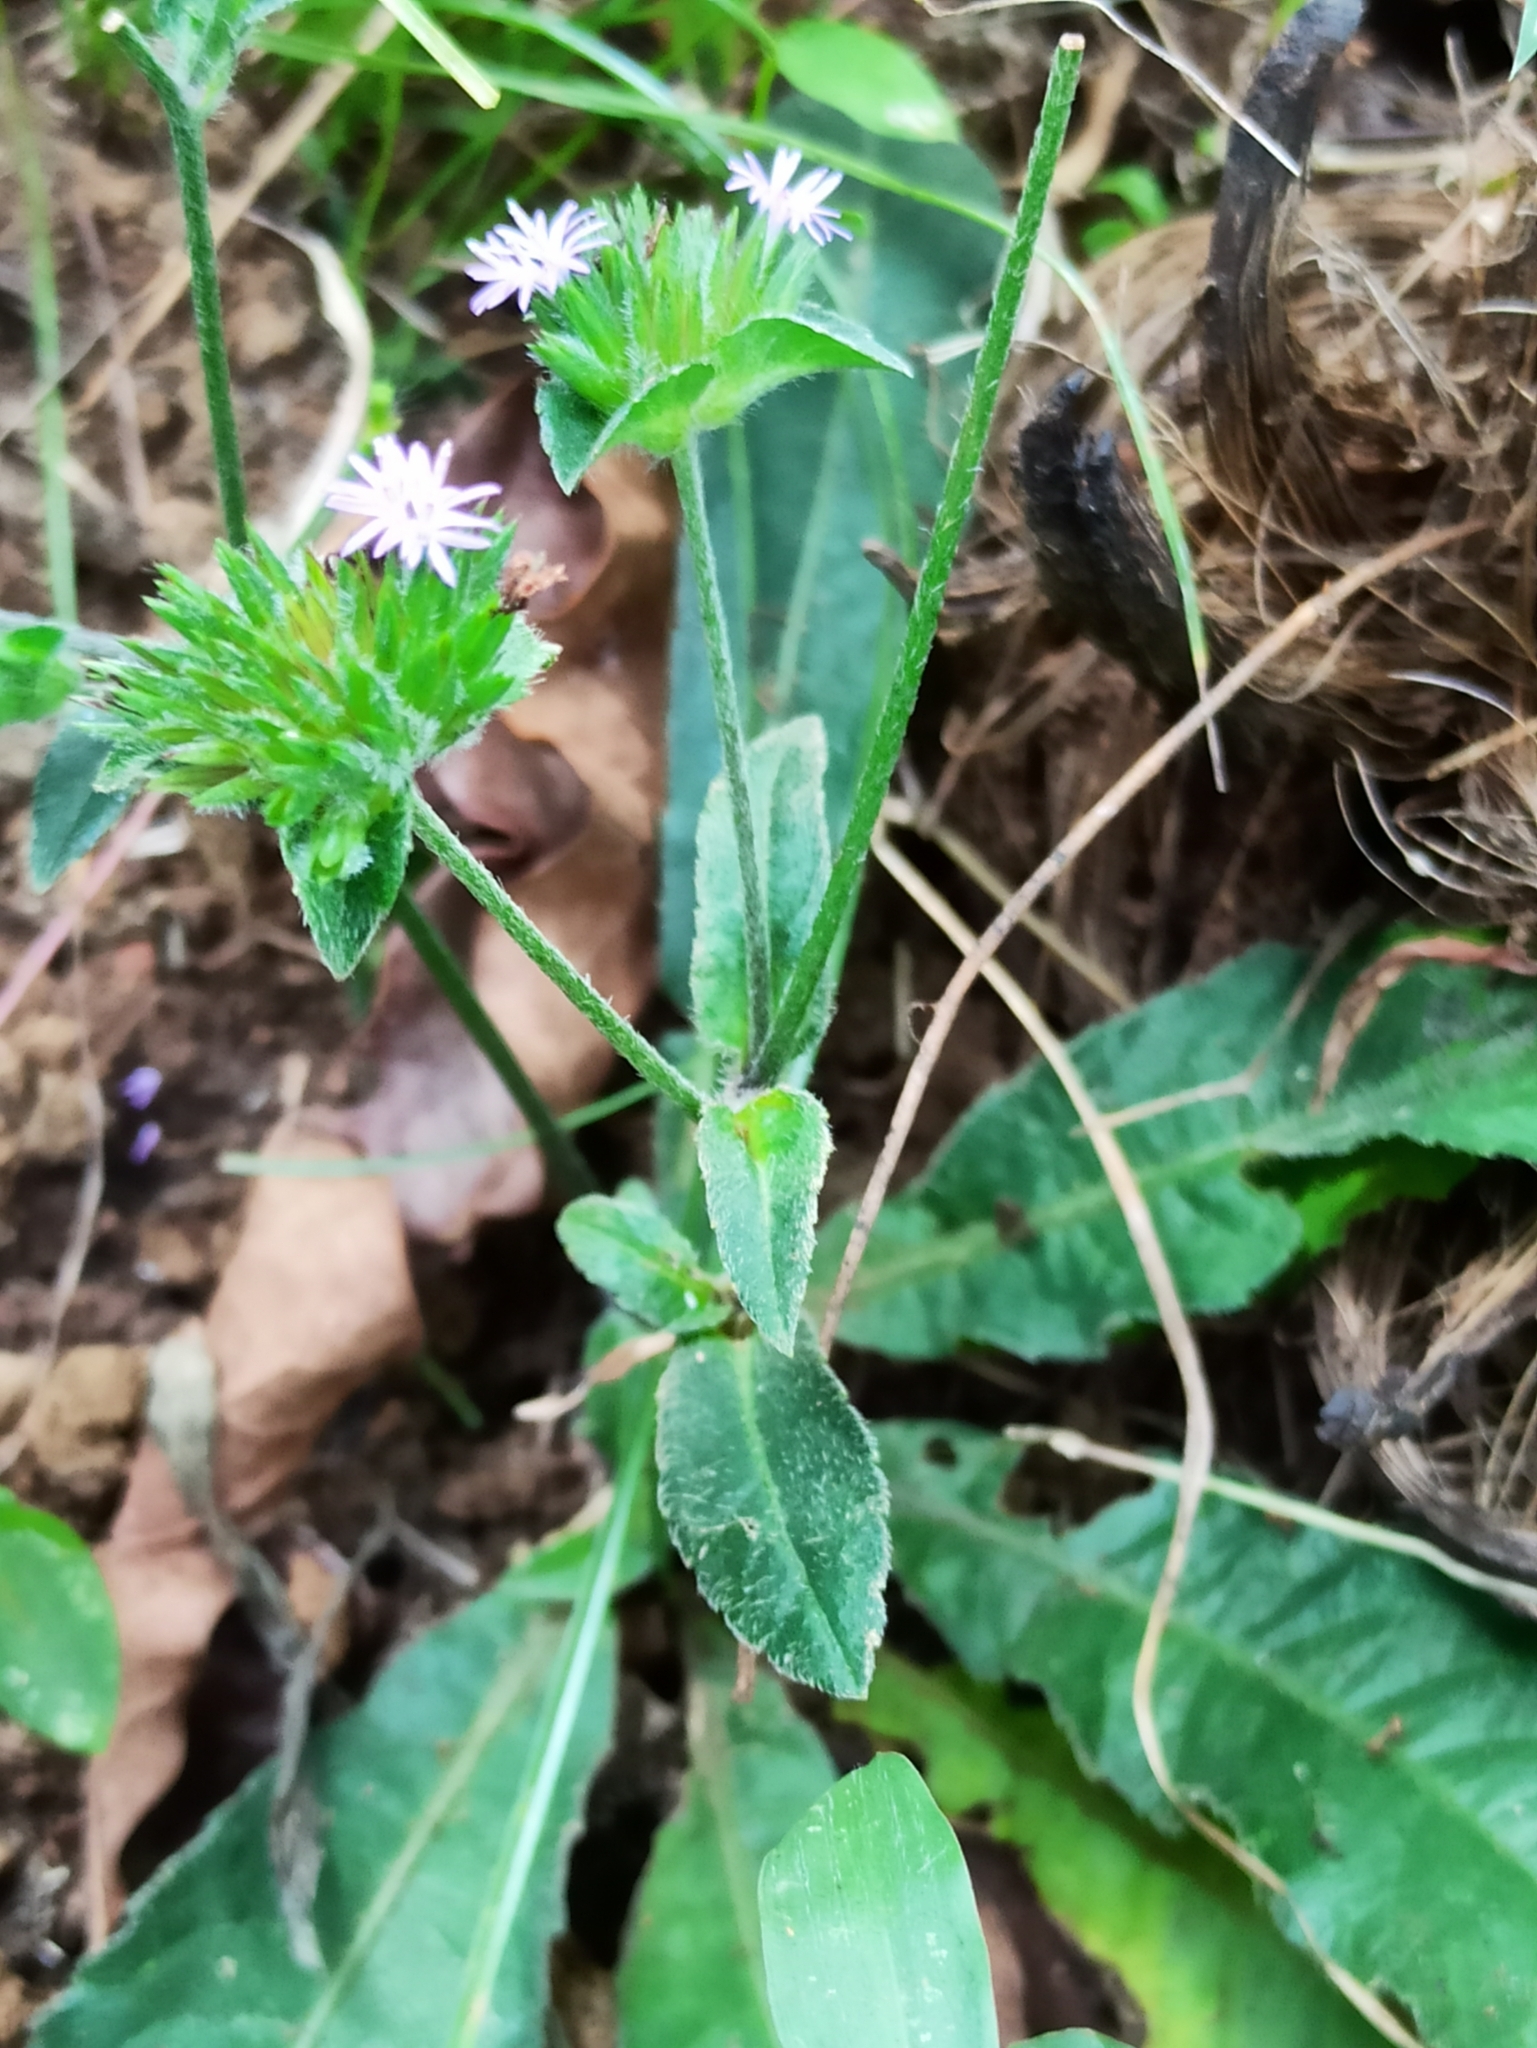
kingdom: Plantae
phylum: Tracheophyta
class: Magnoliopsida
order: Asterales
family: Asteraceae
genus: Elephantopus
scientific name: Elephantopus scaber
